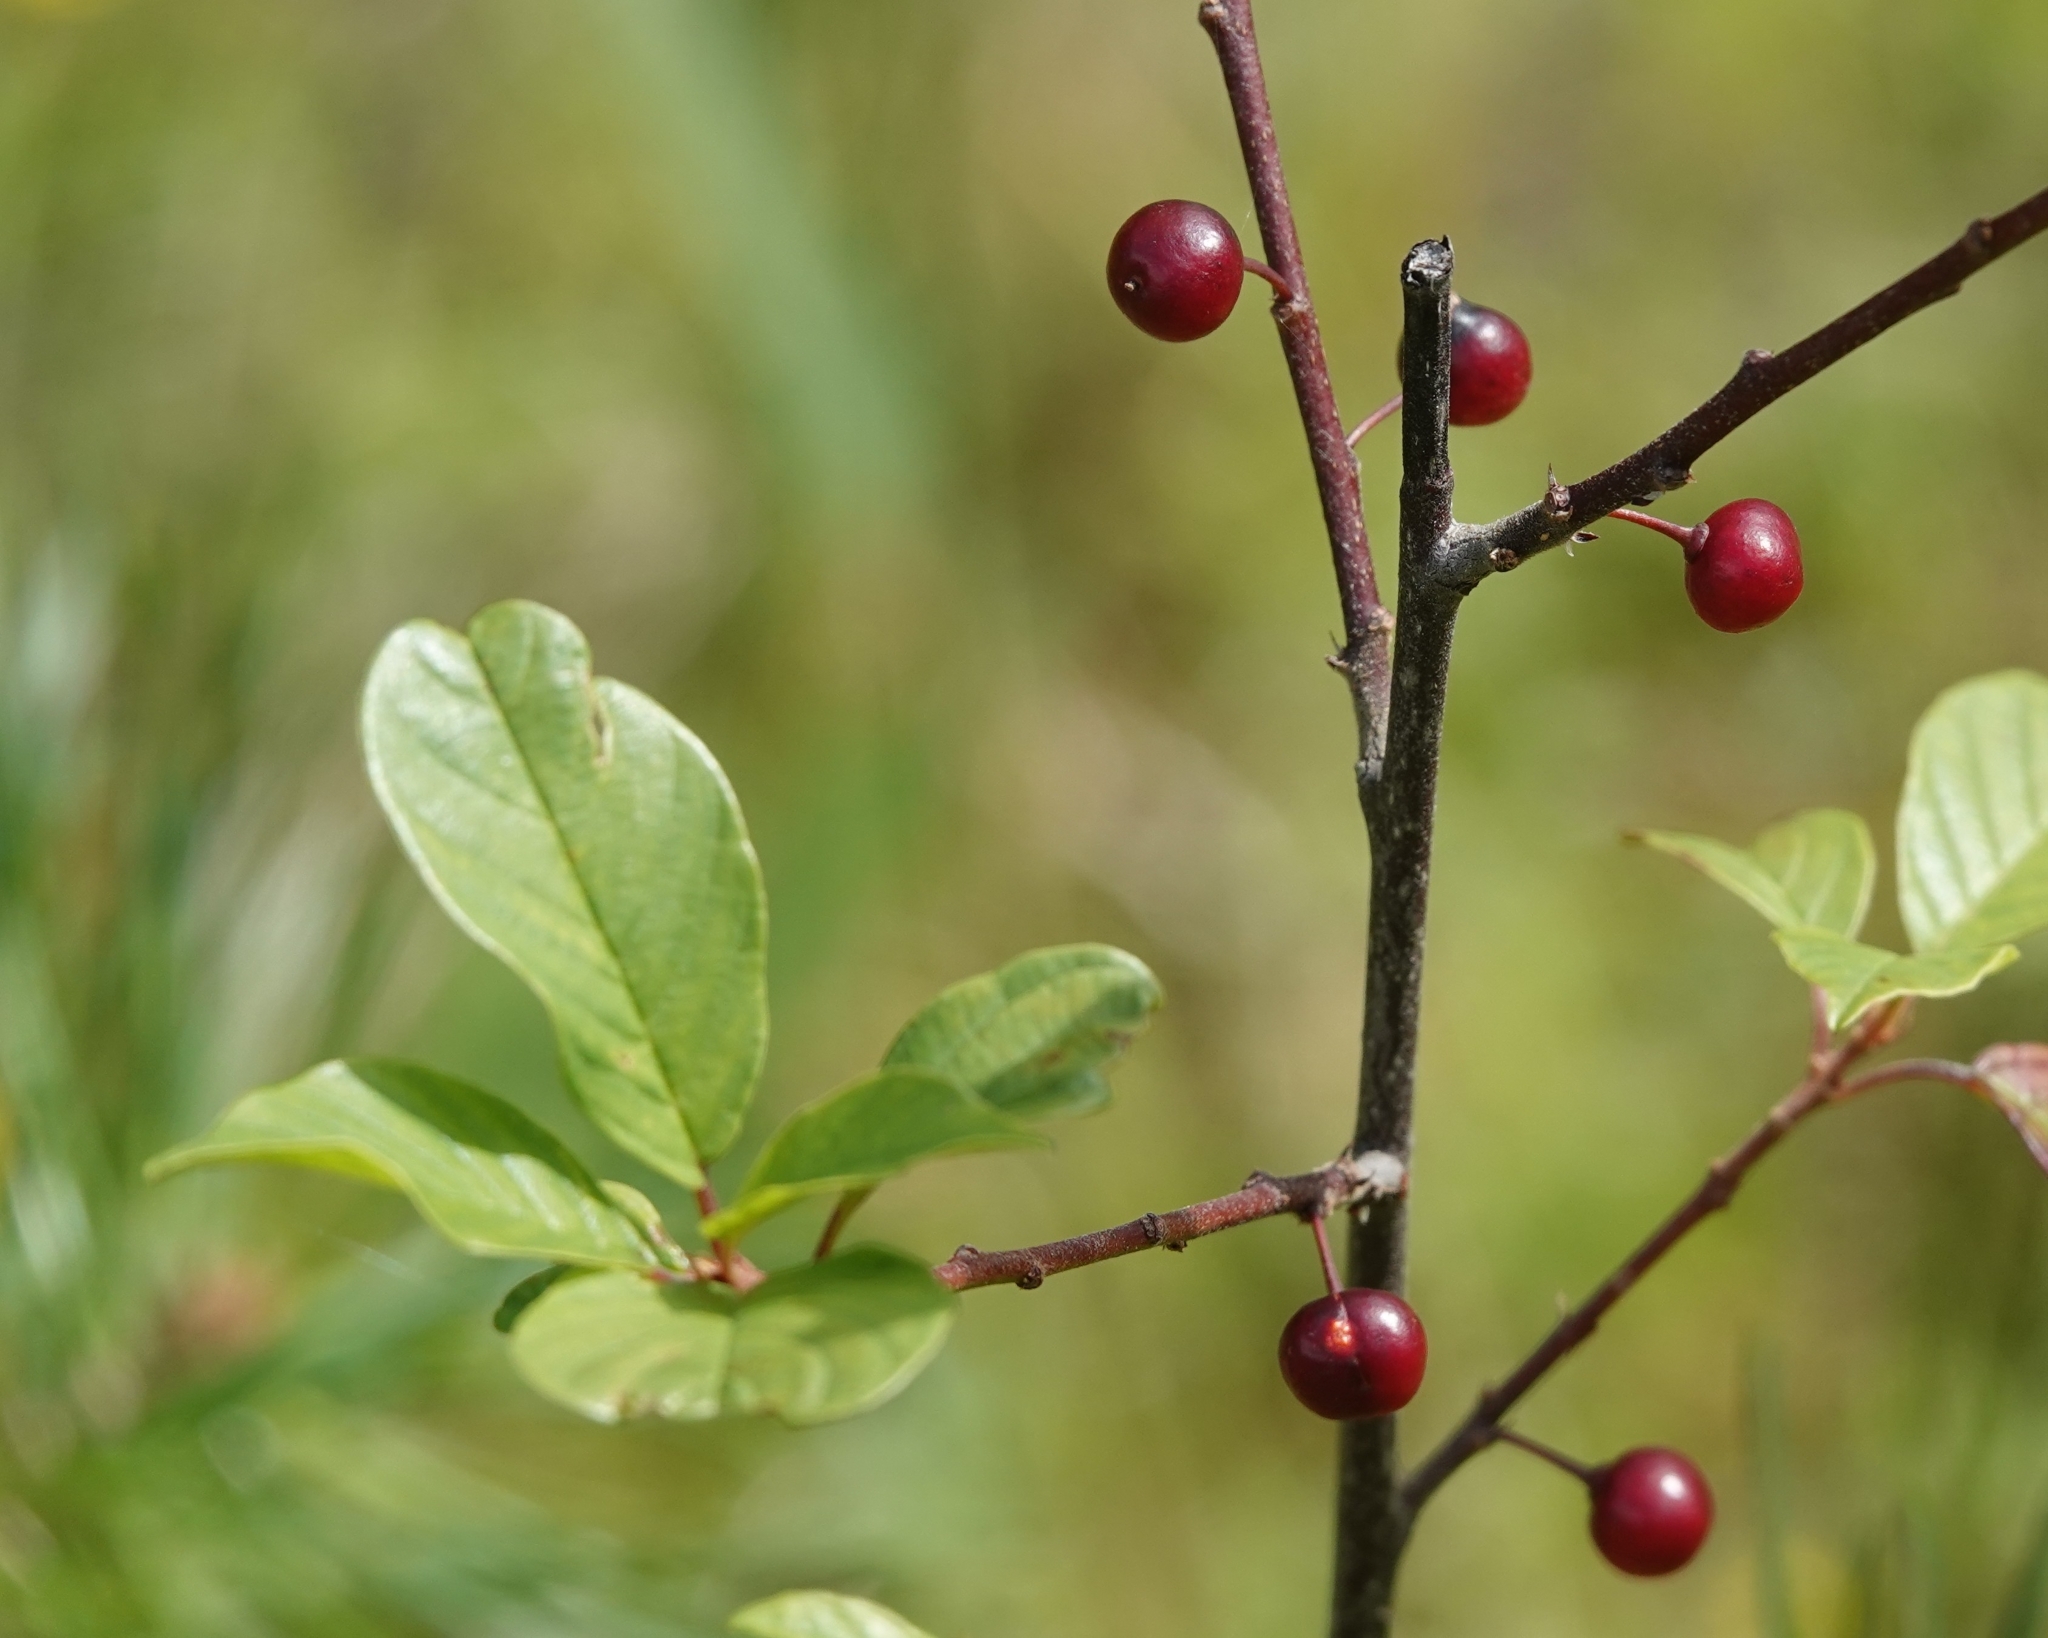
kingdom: Plantae
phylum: Tracheophyta
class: Magnoliopsida
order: Rosales
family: Rhamnaceae
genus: Frangula
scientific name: Frangula alnus
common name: Alder buckthorn
